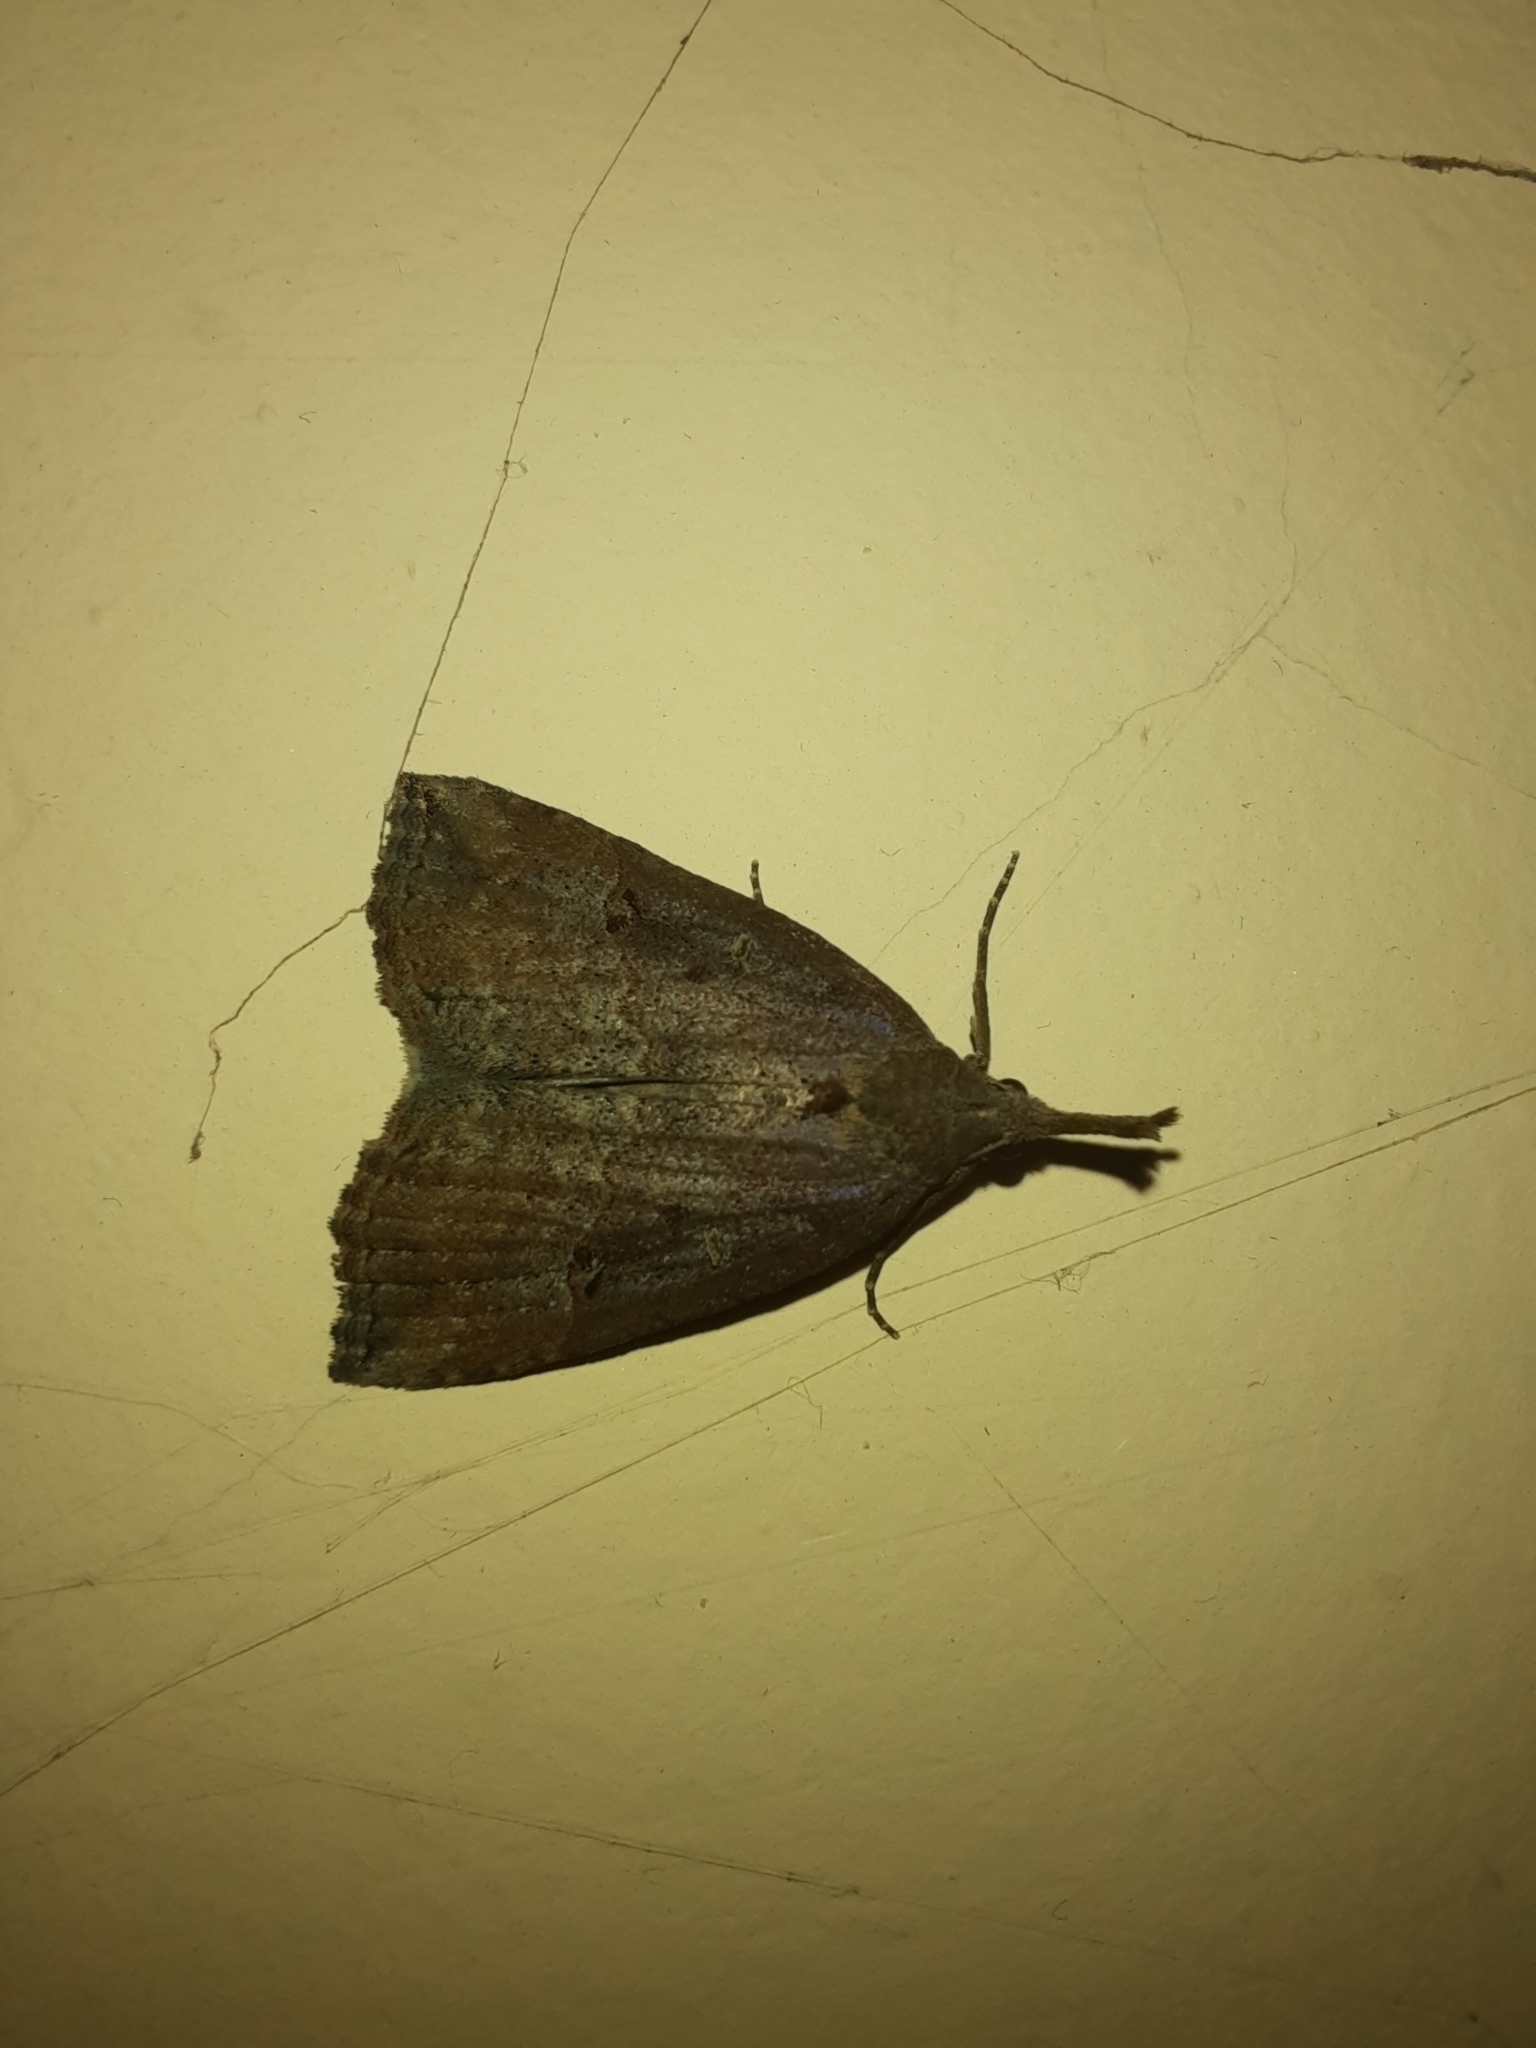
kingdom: Animalia
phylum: Arthropoda
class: Insecta
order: Lepidoptera
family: Erebidae
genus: Hypena
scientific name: Hypena rostralis
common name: Buttoned snout
